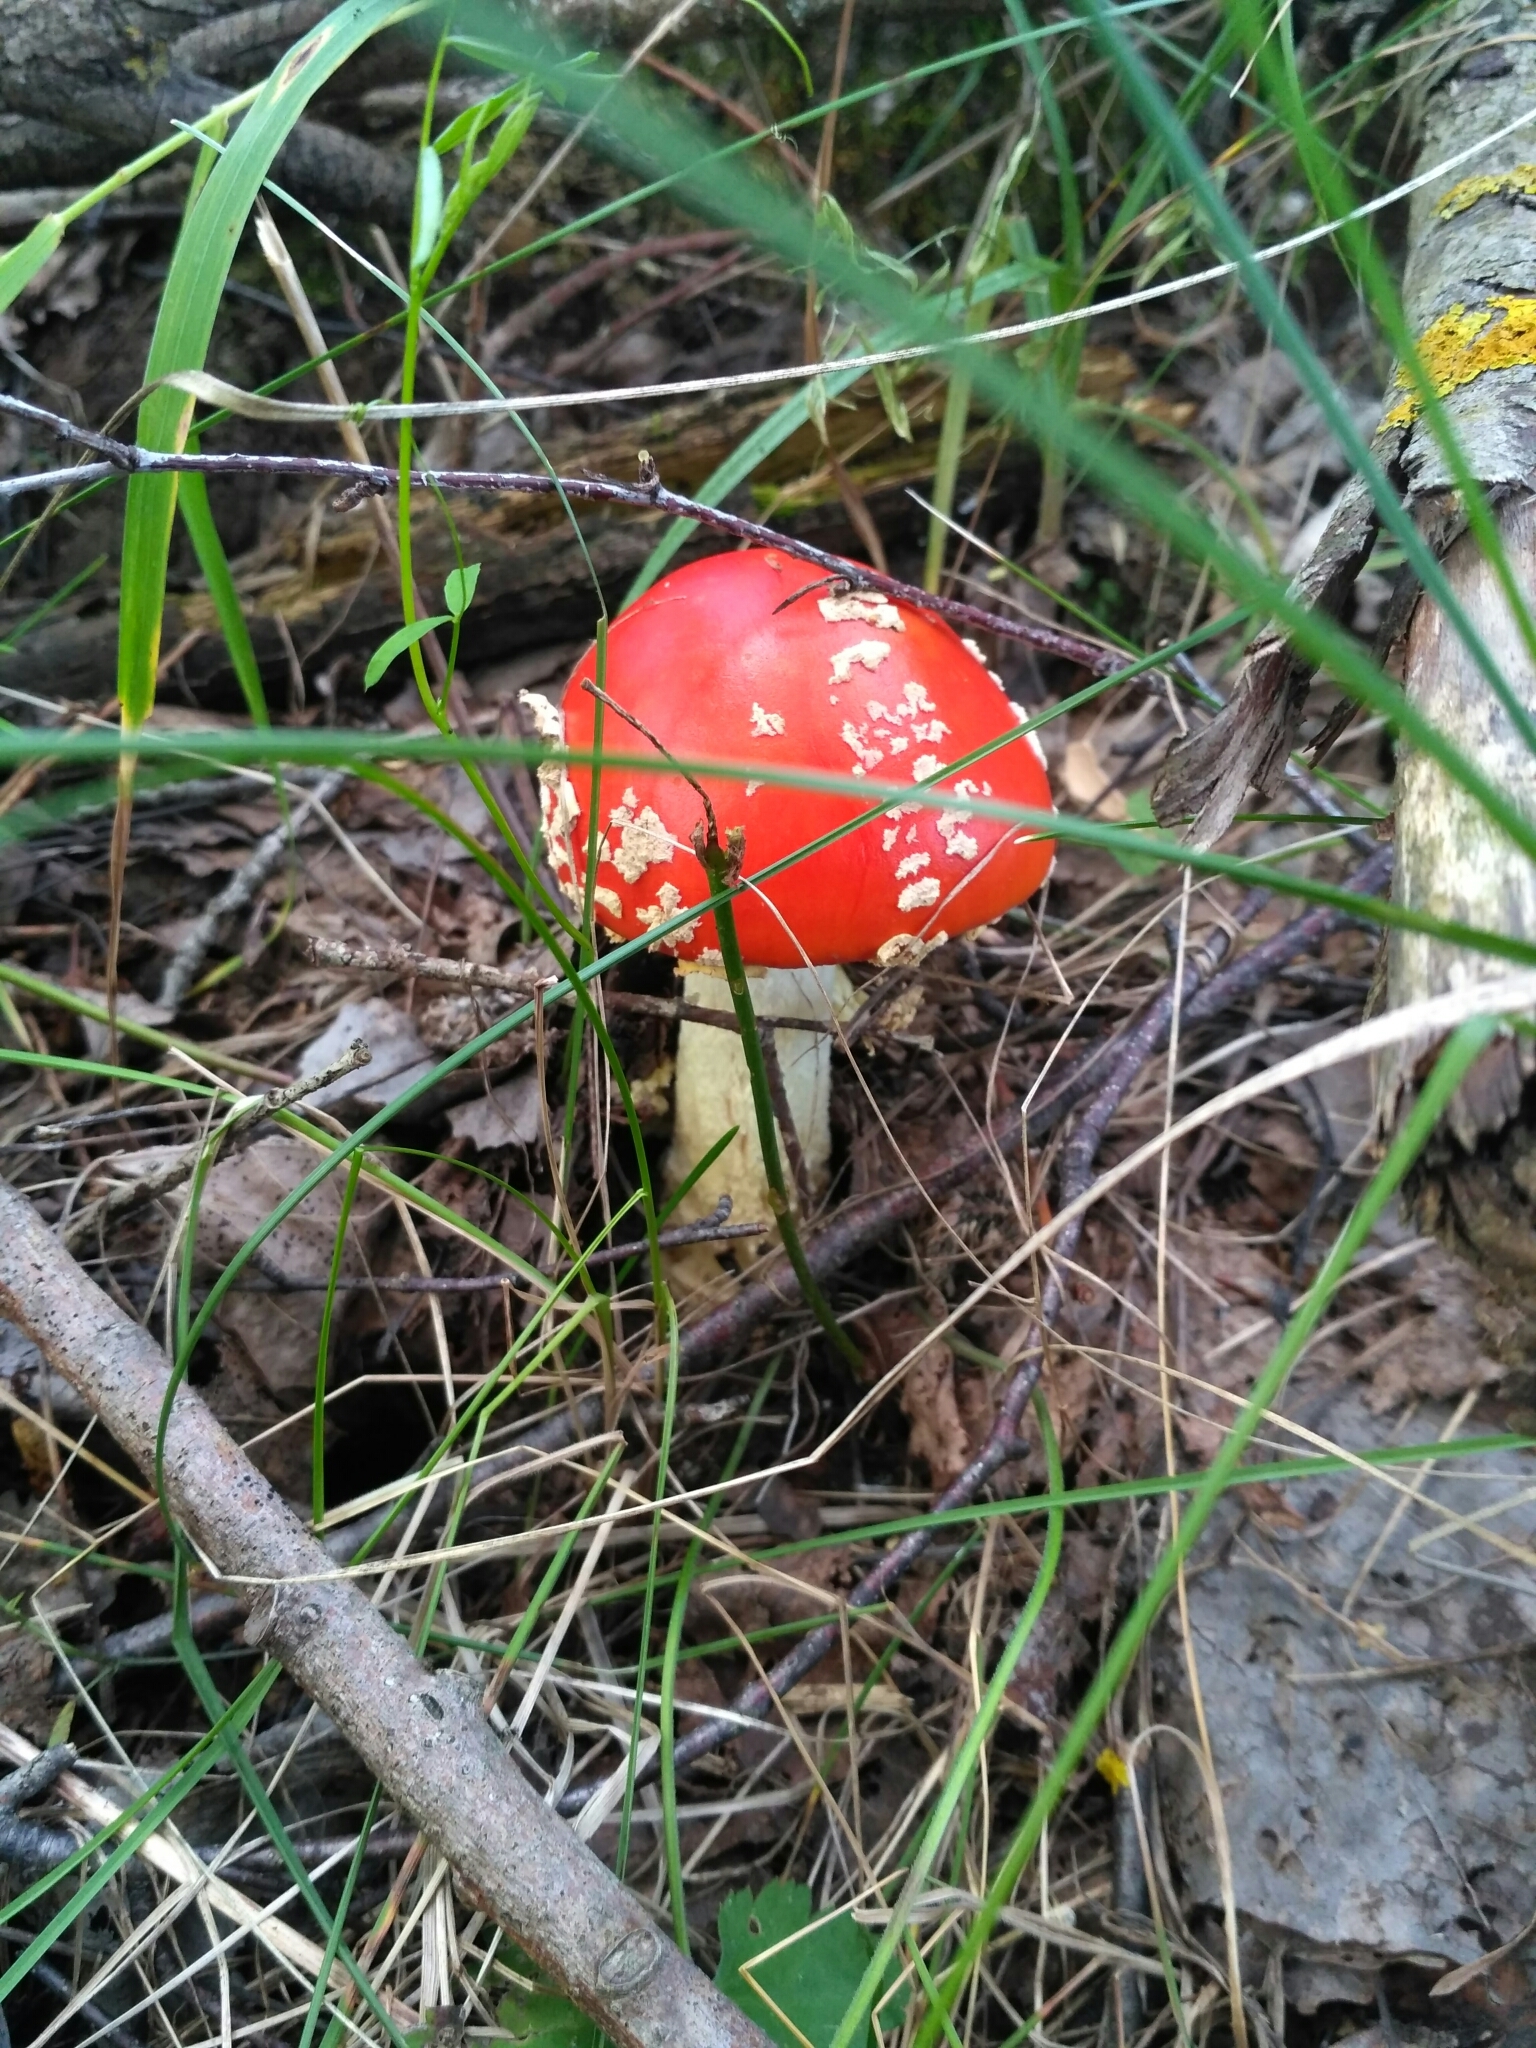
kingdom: Fungi
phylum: Basidiomycota
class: Agaricomycetes
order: Agaricales
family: Amanitaceae
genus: Amanita
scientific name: Amanita muscaria
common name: Fly agaric
